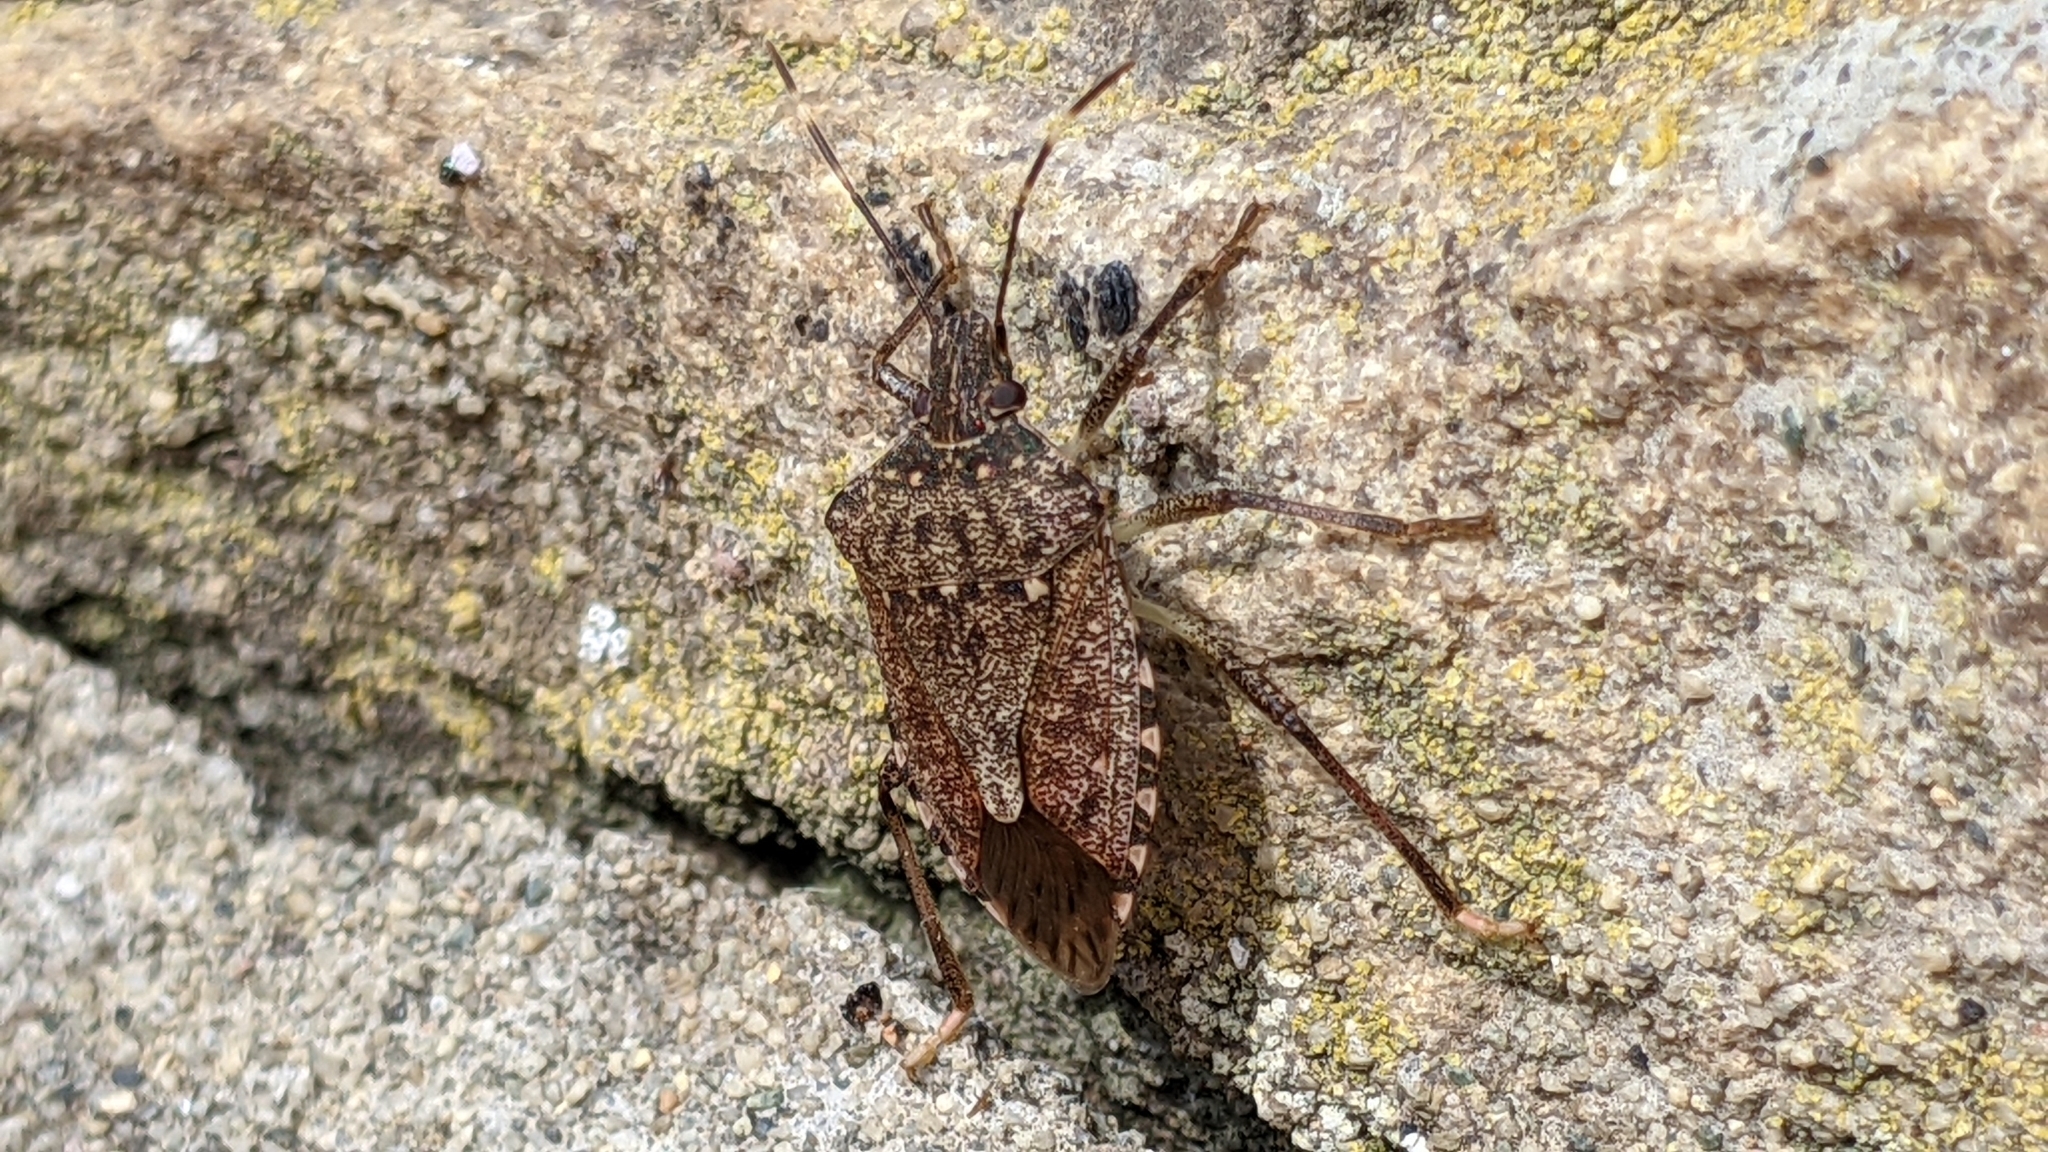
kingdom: Animalia
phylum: Arthropoda
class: Insecta
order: Hemiptera
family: Pentatomidae
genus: Halyomorpha
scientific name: Halyomorpha halys
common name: Brown marmorated stink bug
